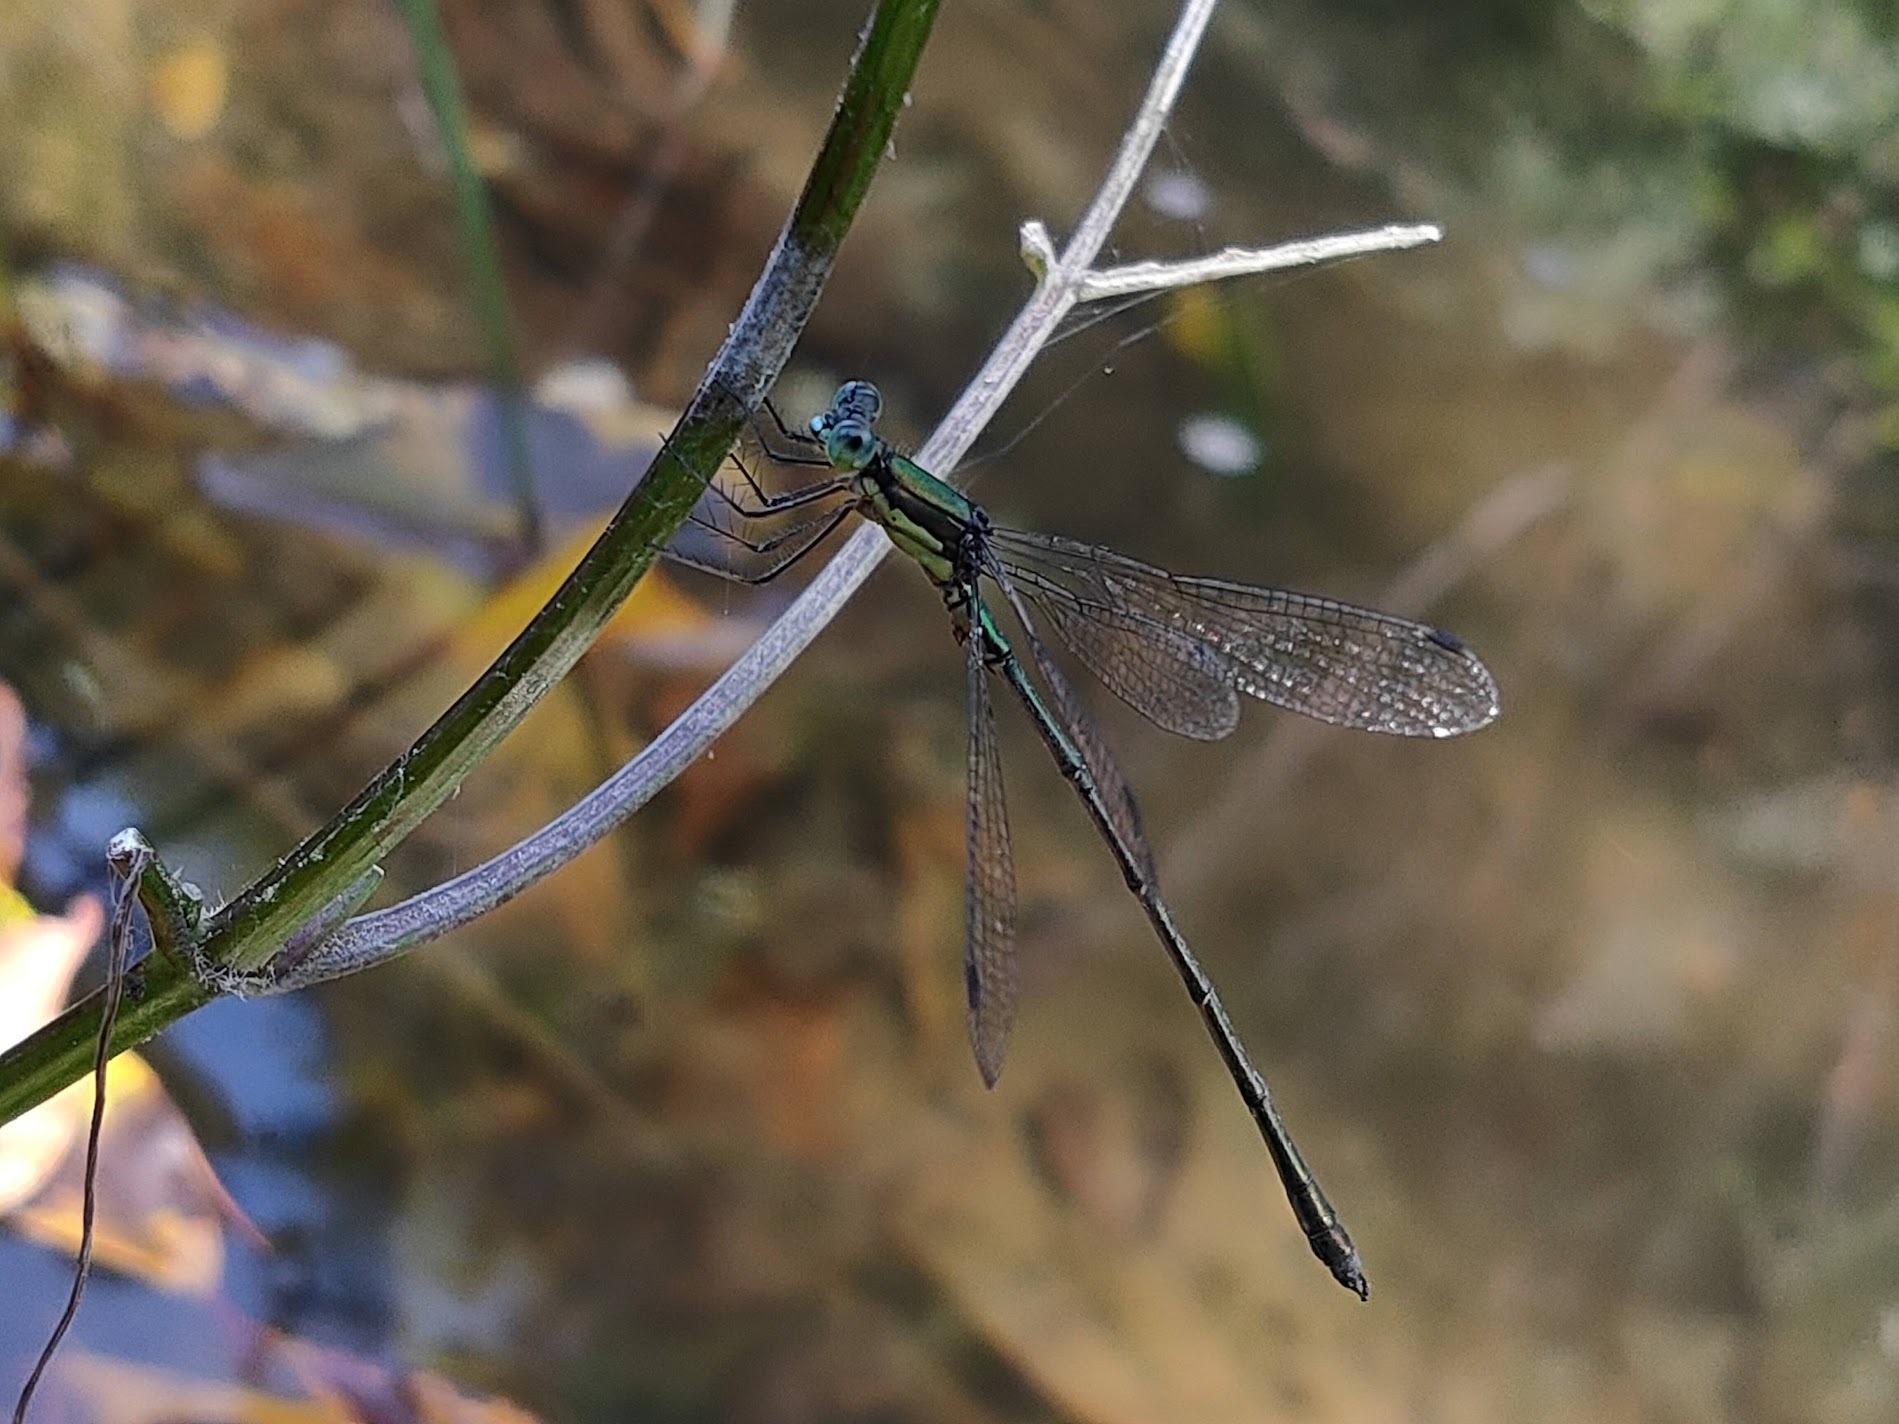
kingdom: Animalia
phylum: Arthropoda
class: Insecta
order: Odonata
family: Lestidae
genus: Lestes
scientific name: Lestes temporalis
